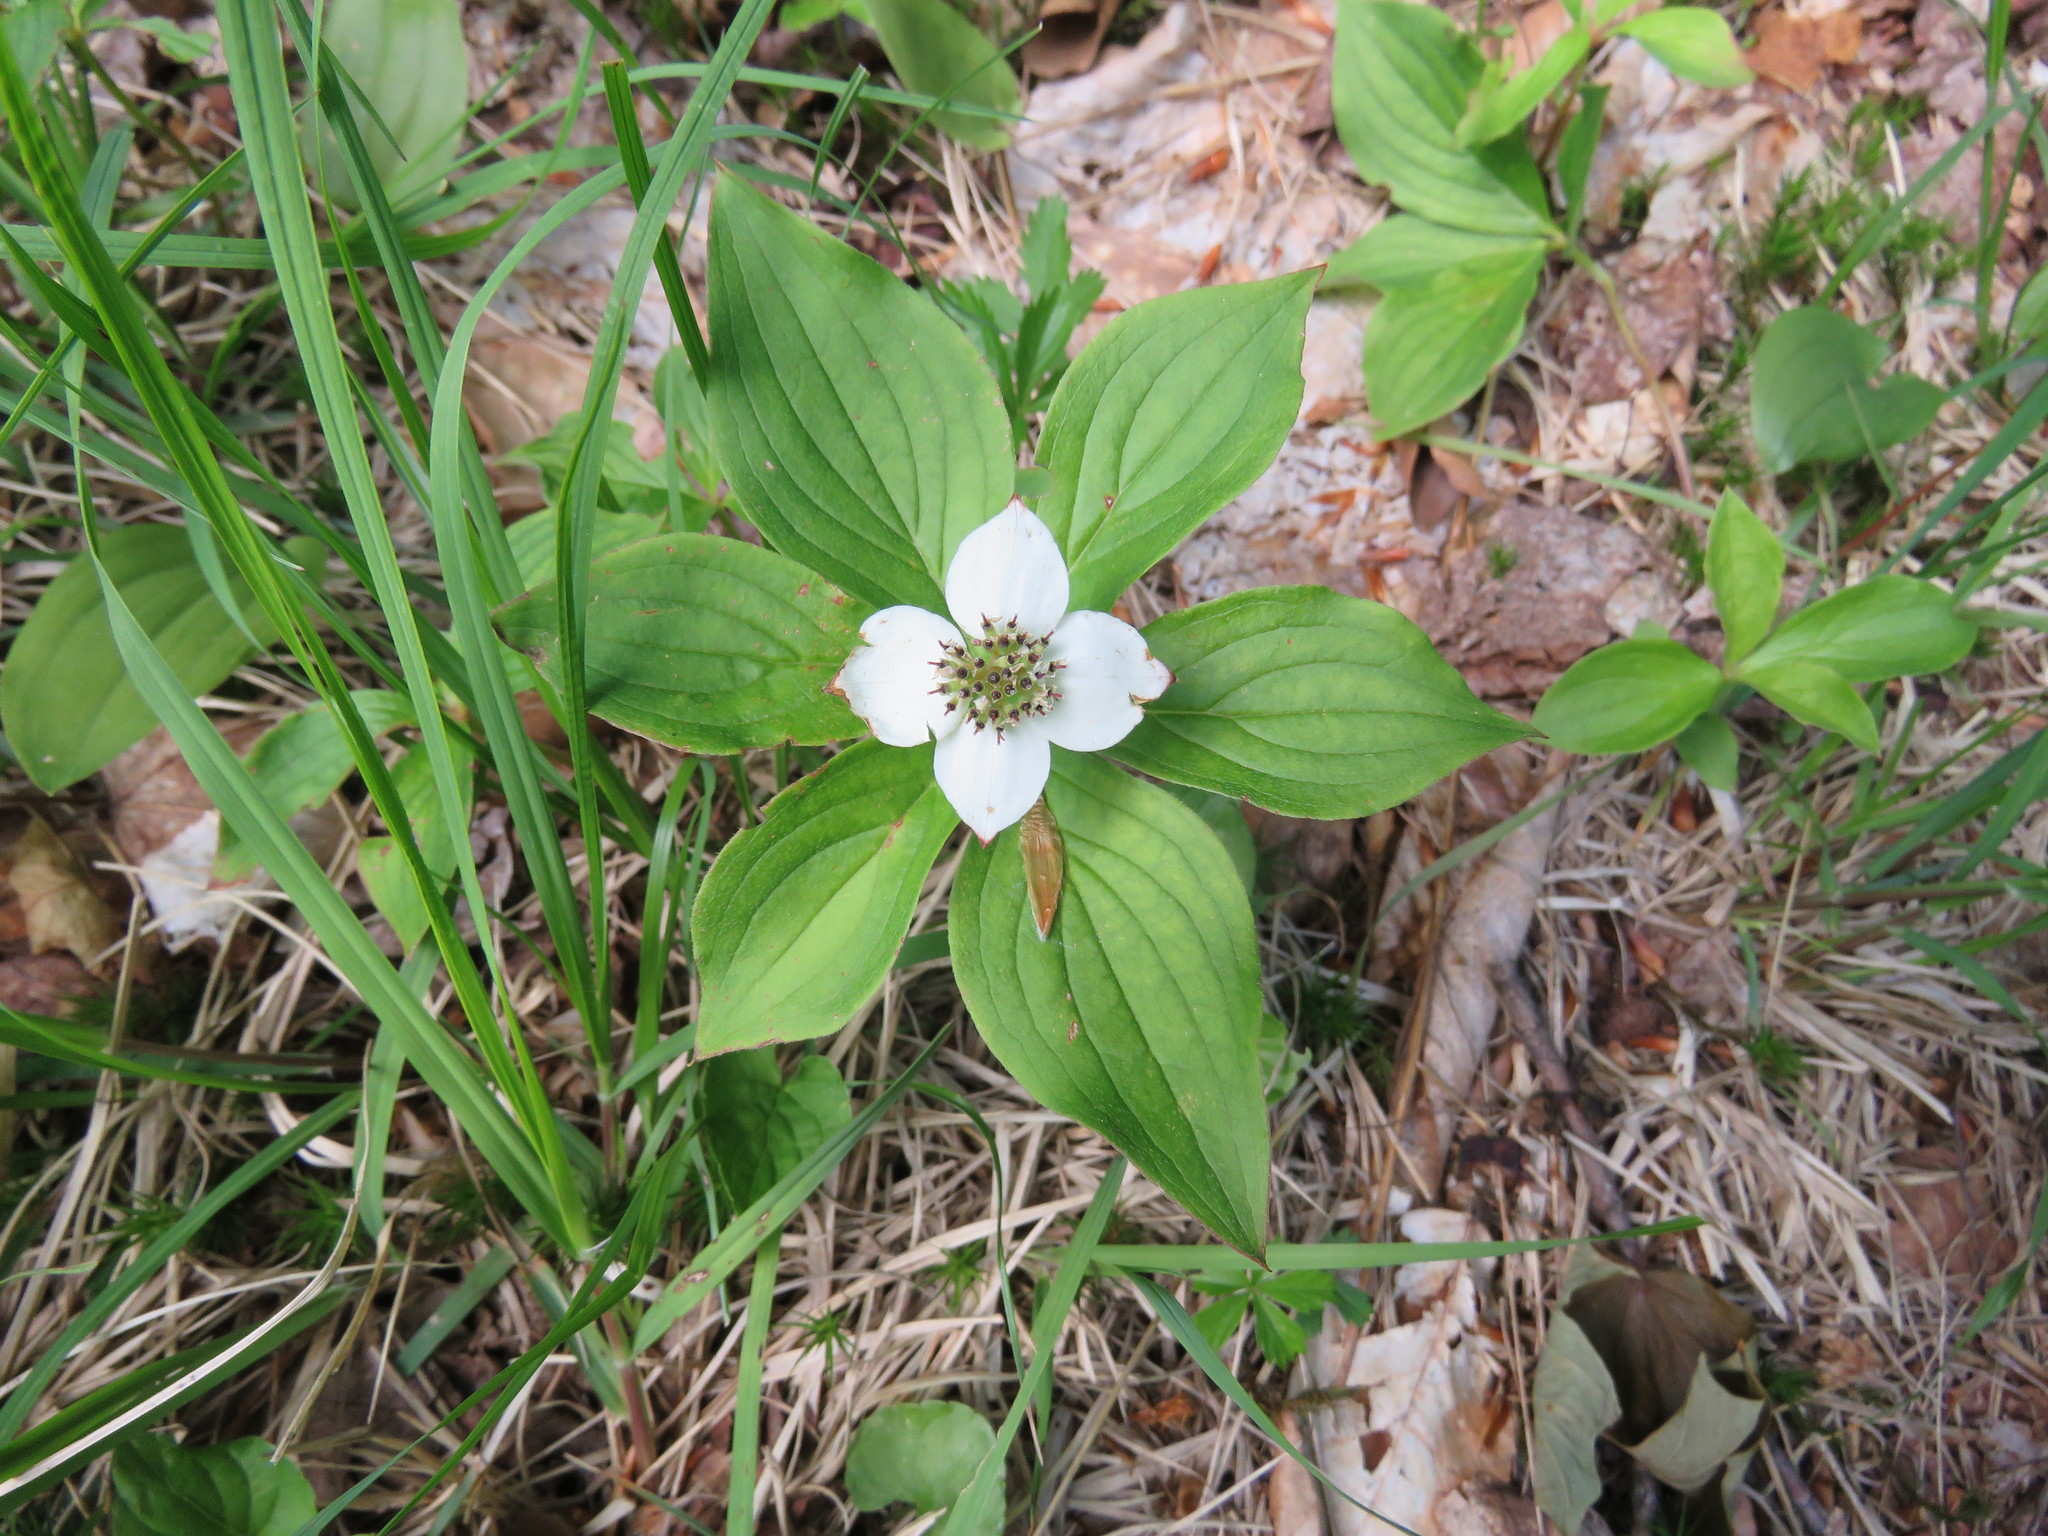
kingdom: Plantae
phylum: Tracheophyta
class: Magnoliopsida
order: Cornales
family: Cornaceae
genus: Cornus
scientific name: Cornus canadensis
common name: Creeping dogwood
